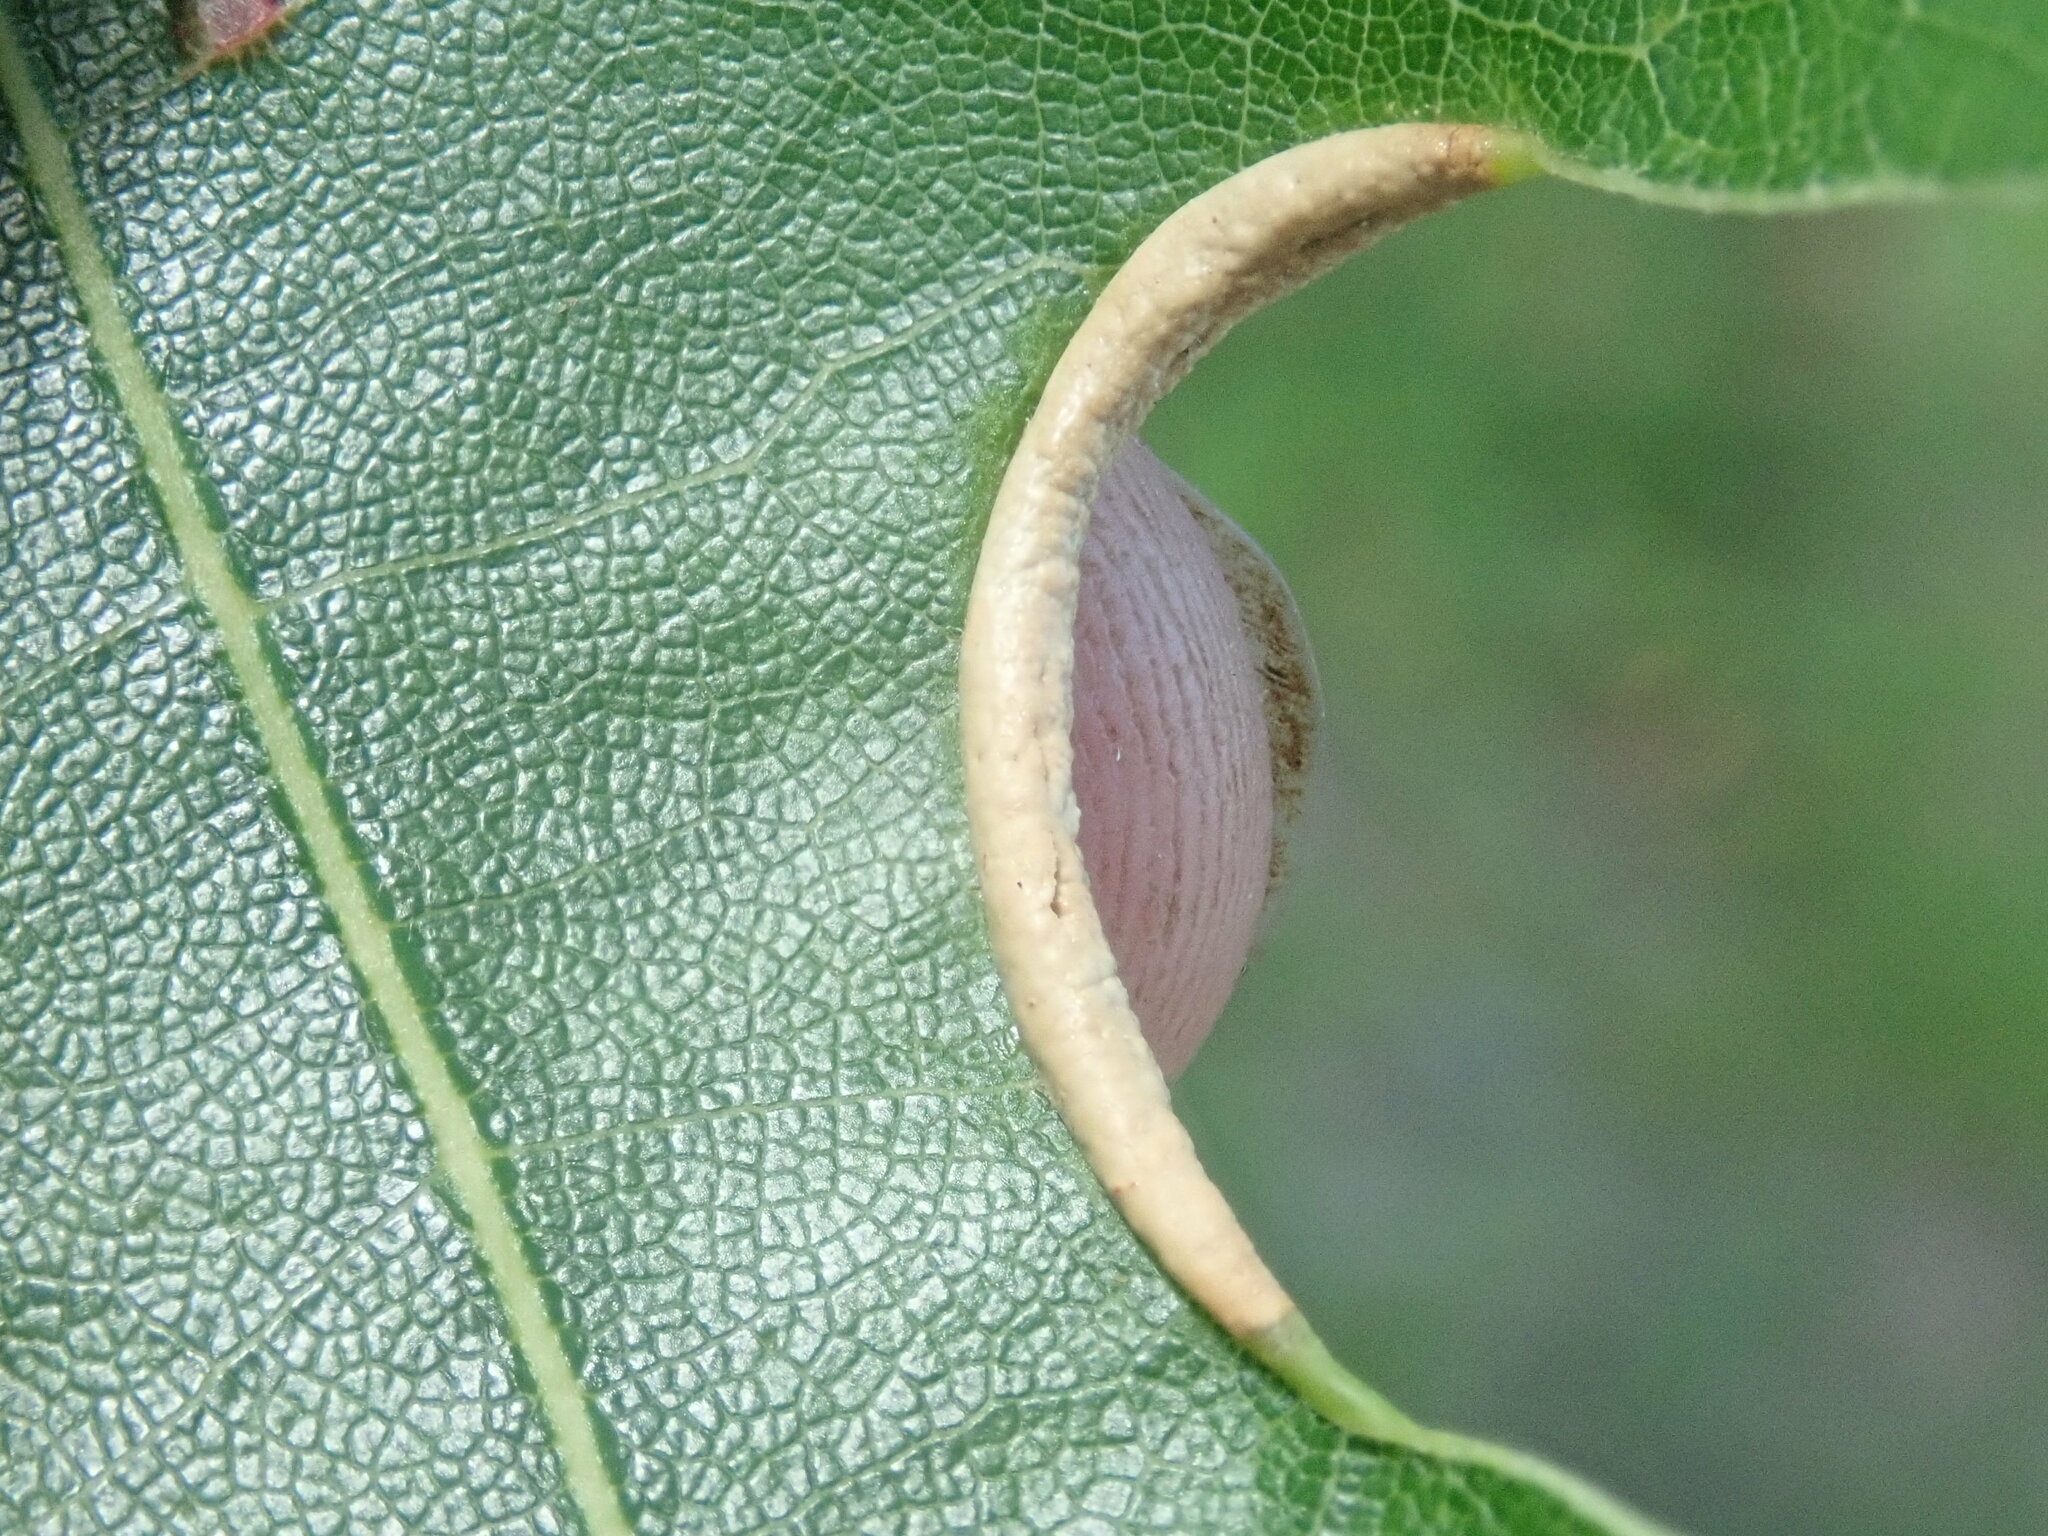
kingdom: Animalia
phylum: Arthropoda
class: Insecta
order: Diptera
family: Cecidomyiidae
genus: Macrodiplosis
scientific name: Macrodiplosis erubescens
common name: Marginal leaf fold gall midge
